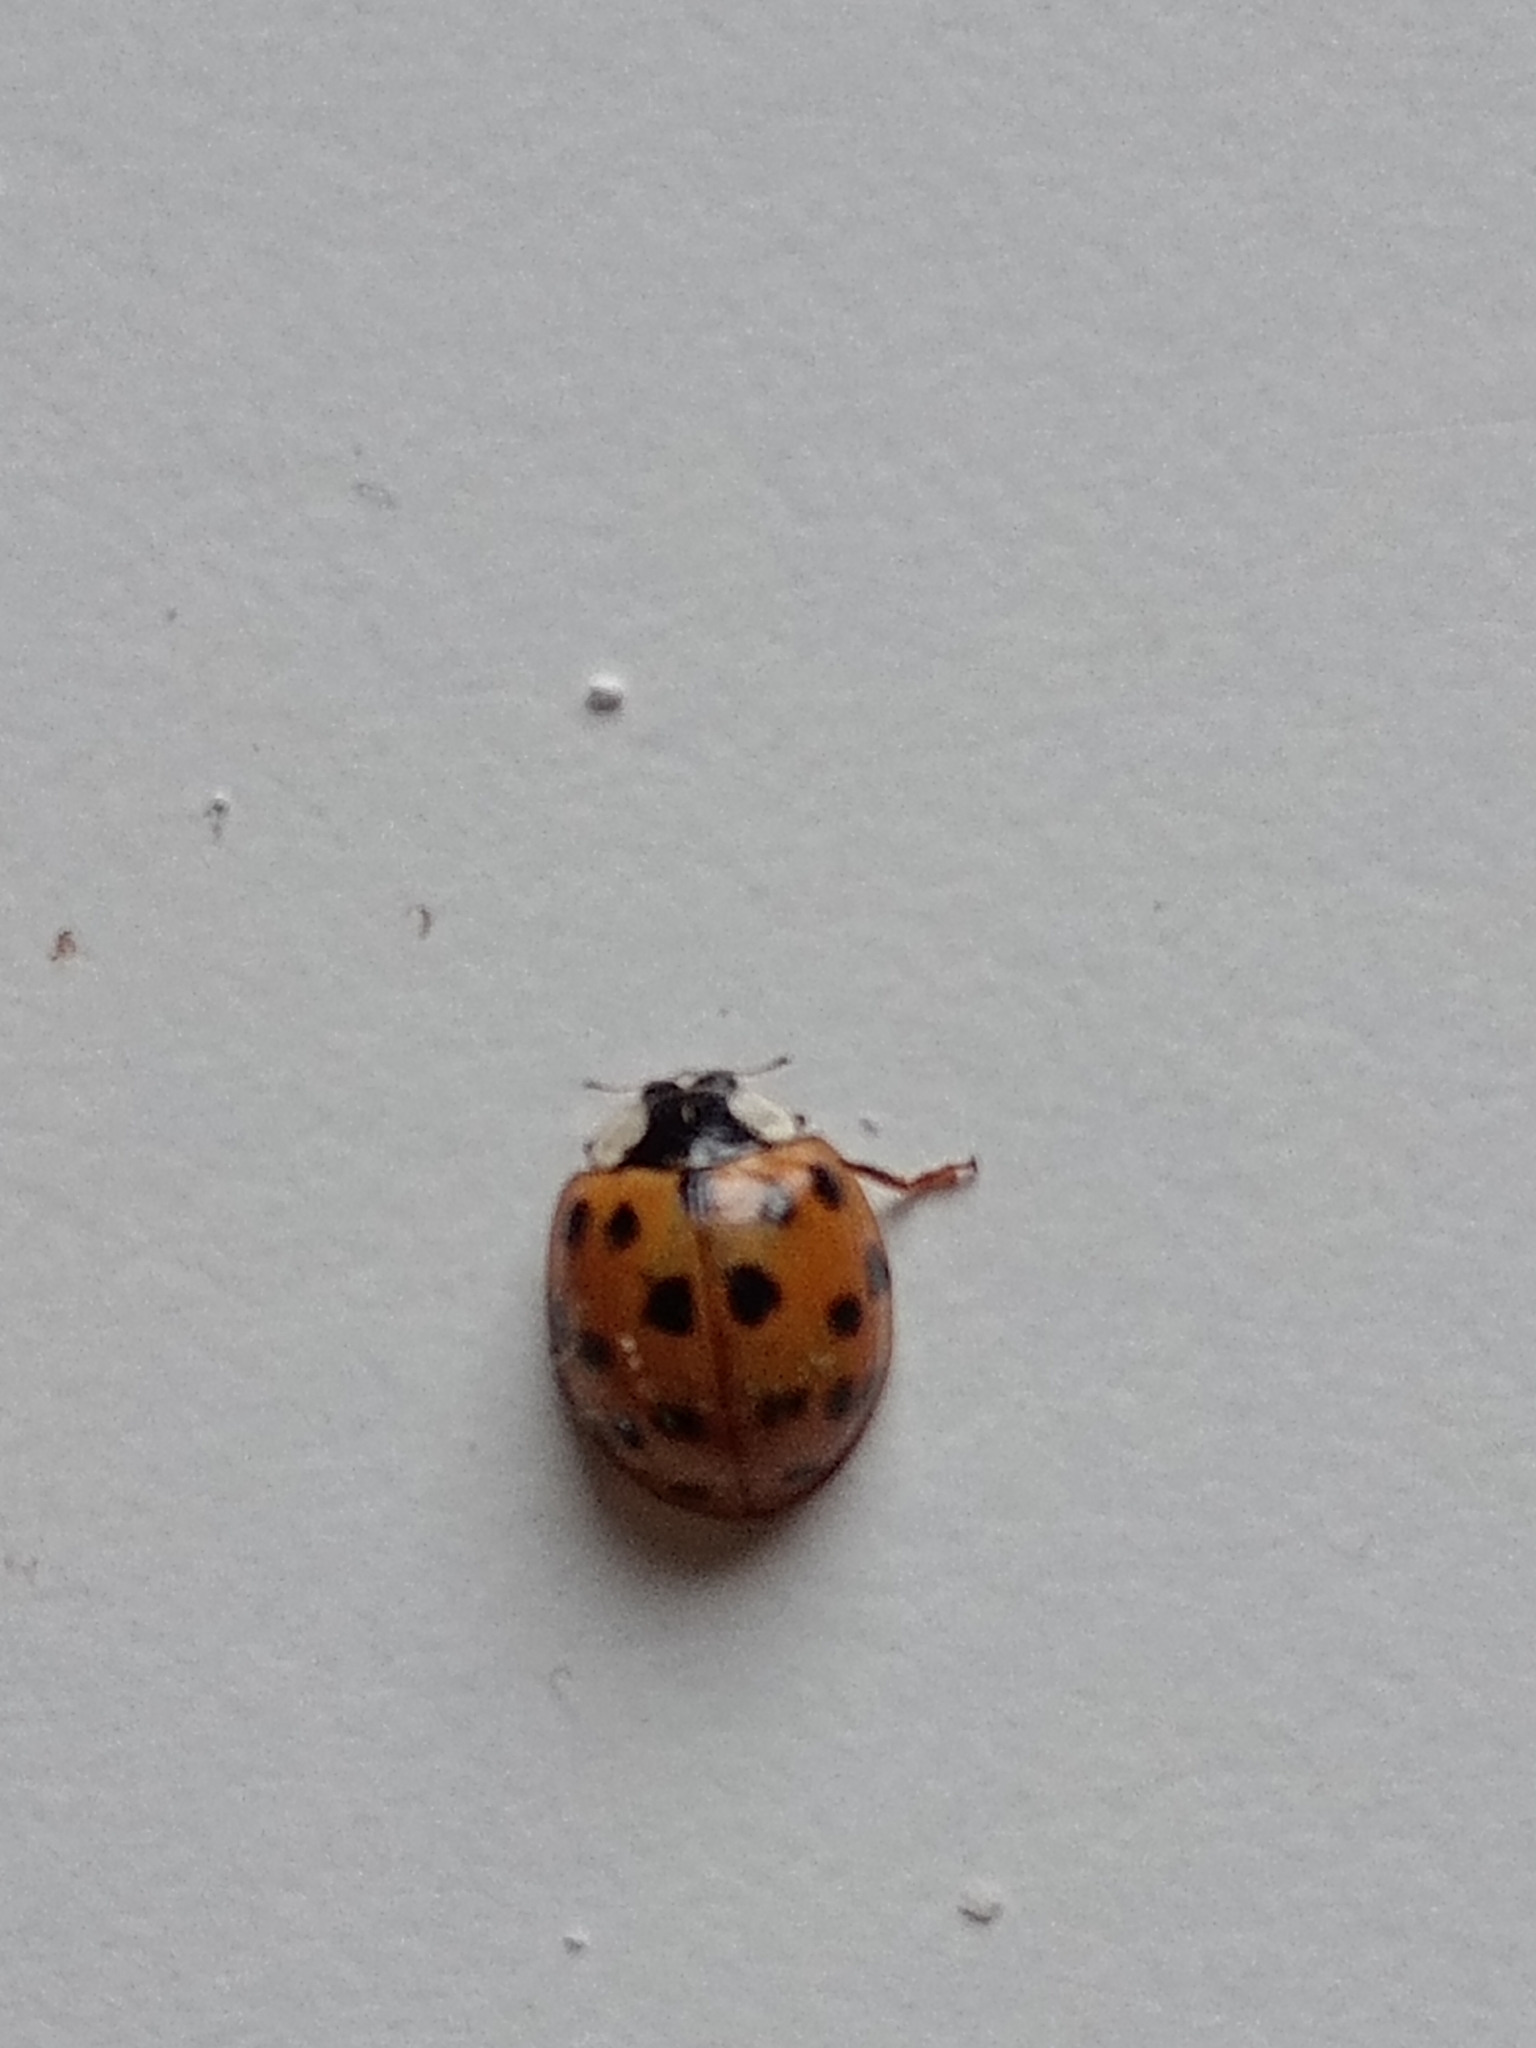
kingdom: Animalia
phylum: Arthropoda
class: Insecta
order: Coleoptera
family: Coccinellidae
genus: Harmonia
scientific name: Harmonia axyridis
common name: Harlequin ladybird
